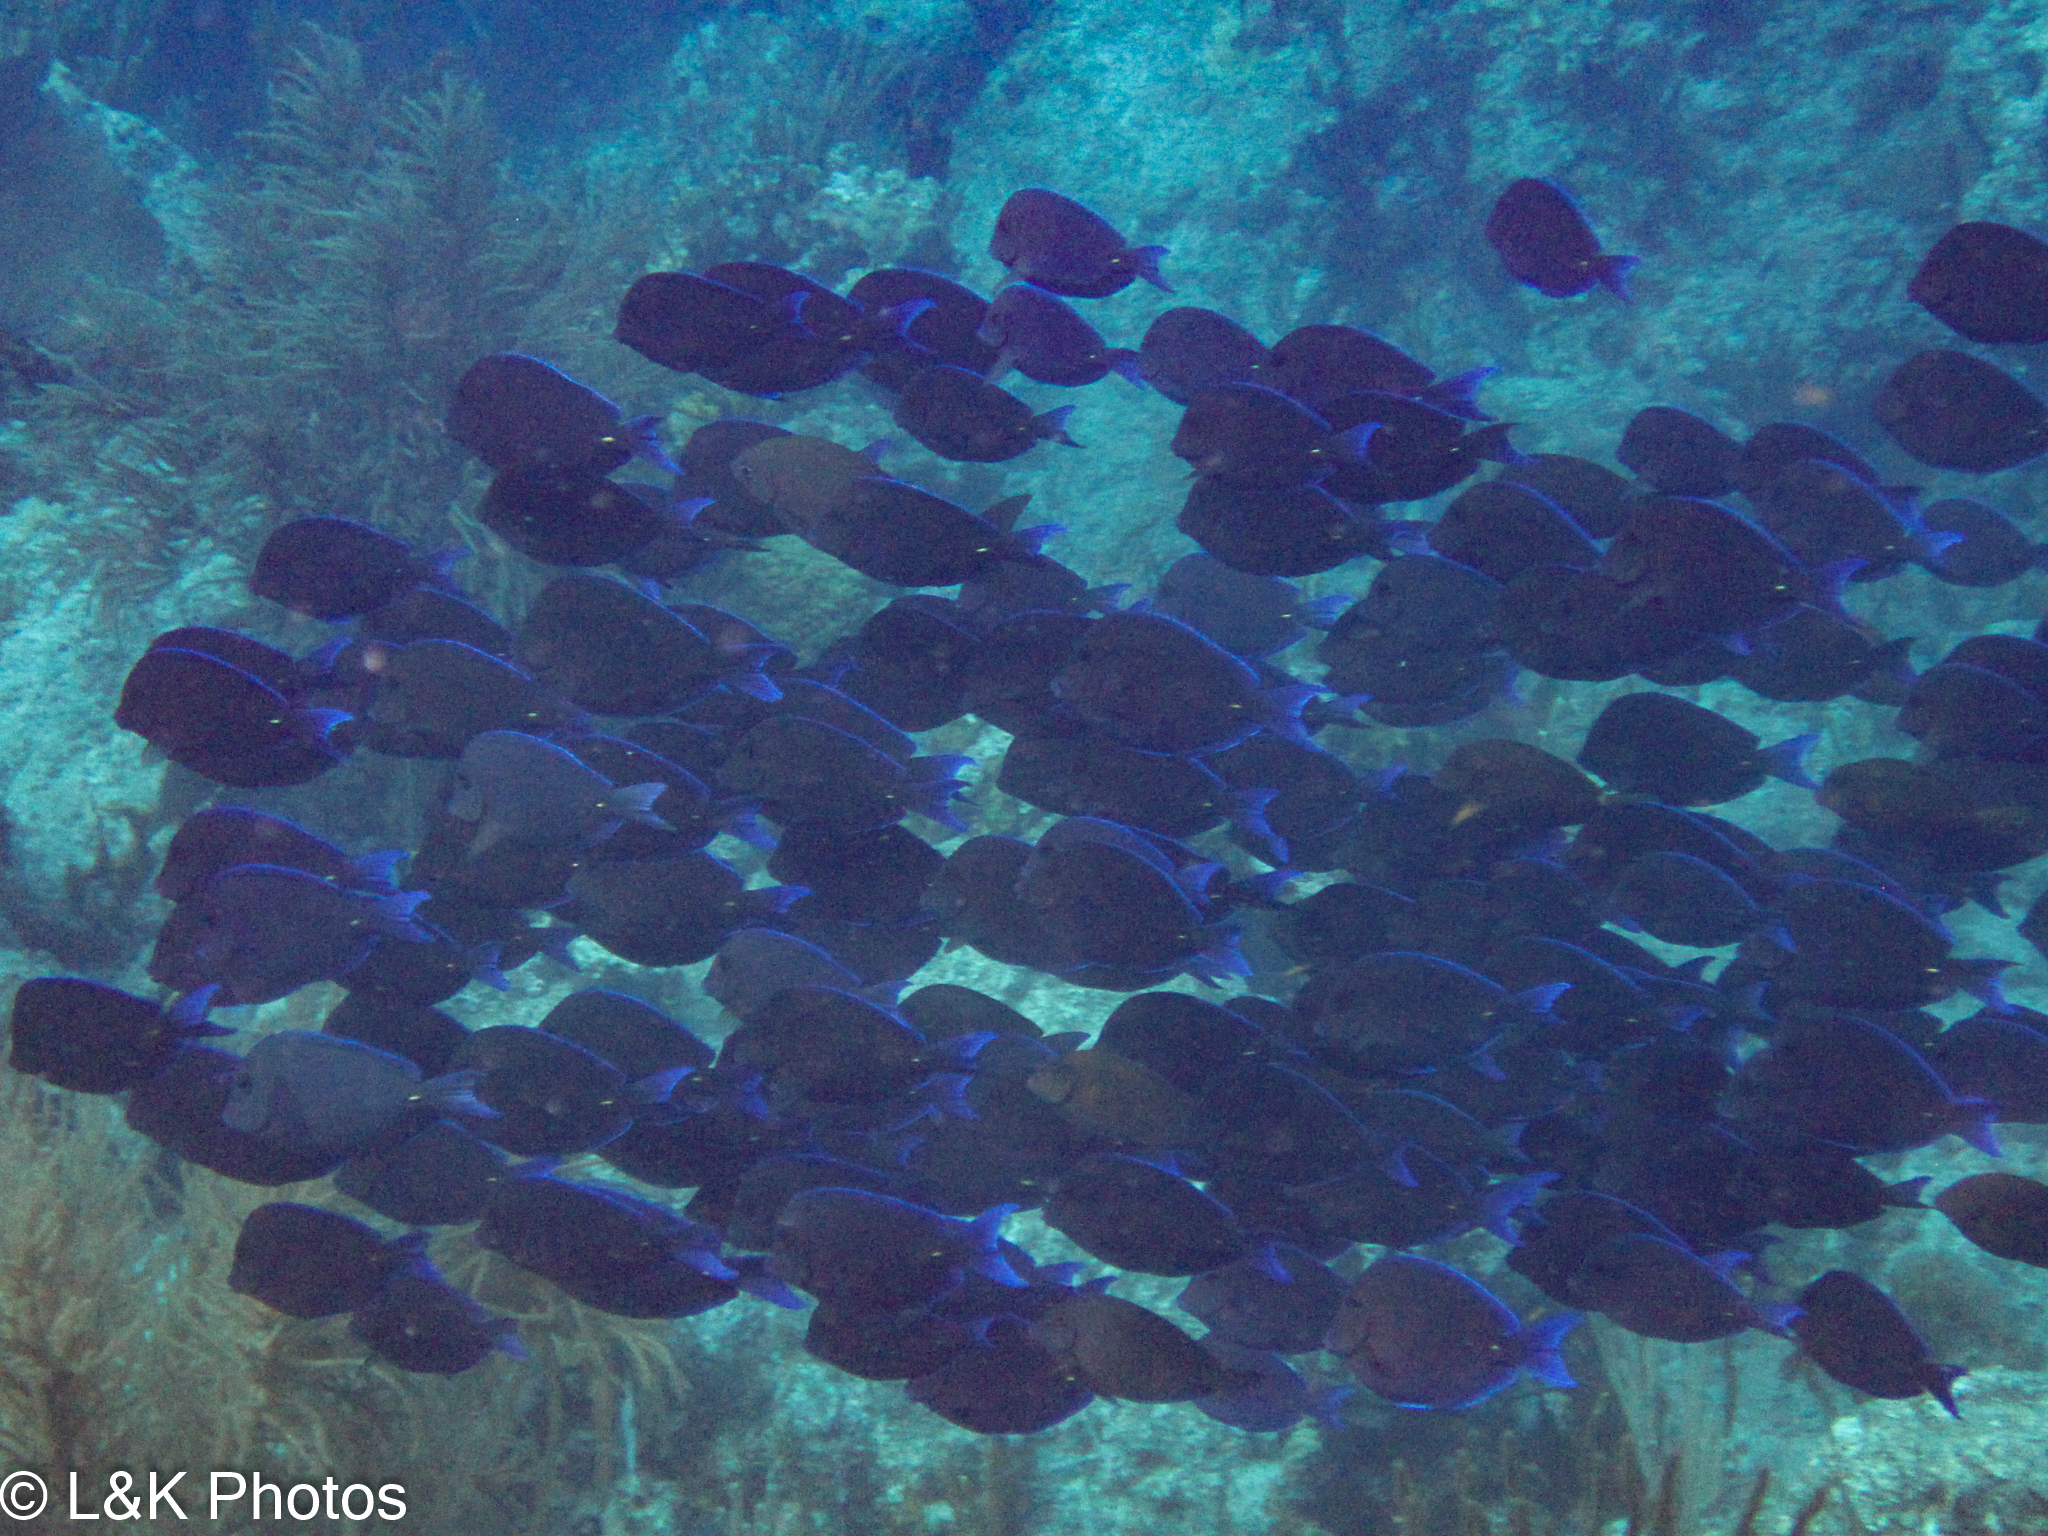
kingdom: Animalia
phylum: Chordata
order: Perciformes
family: Acanthuridae
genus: Acanthurus
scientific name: Acanthurus coeruleus
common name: Blue tang
